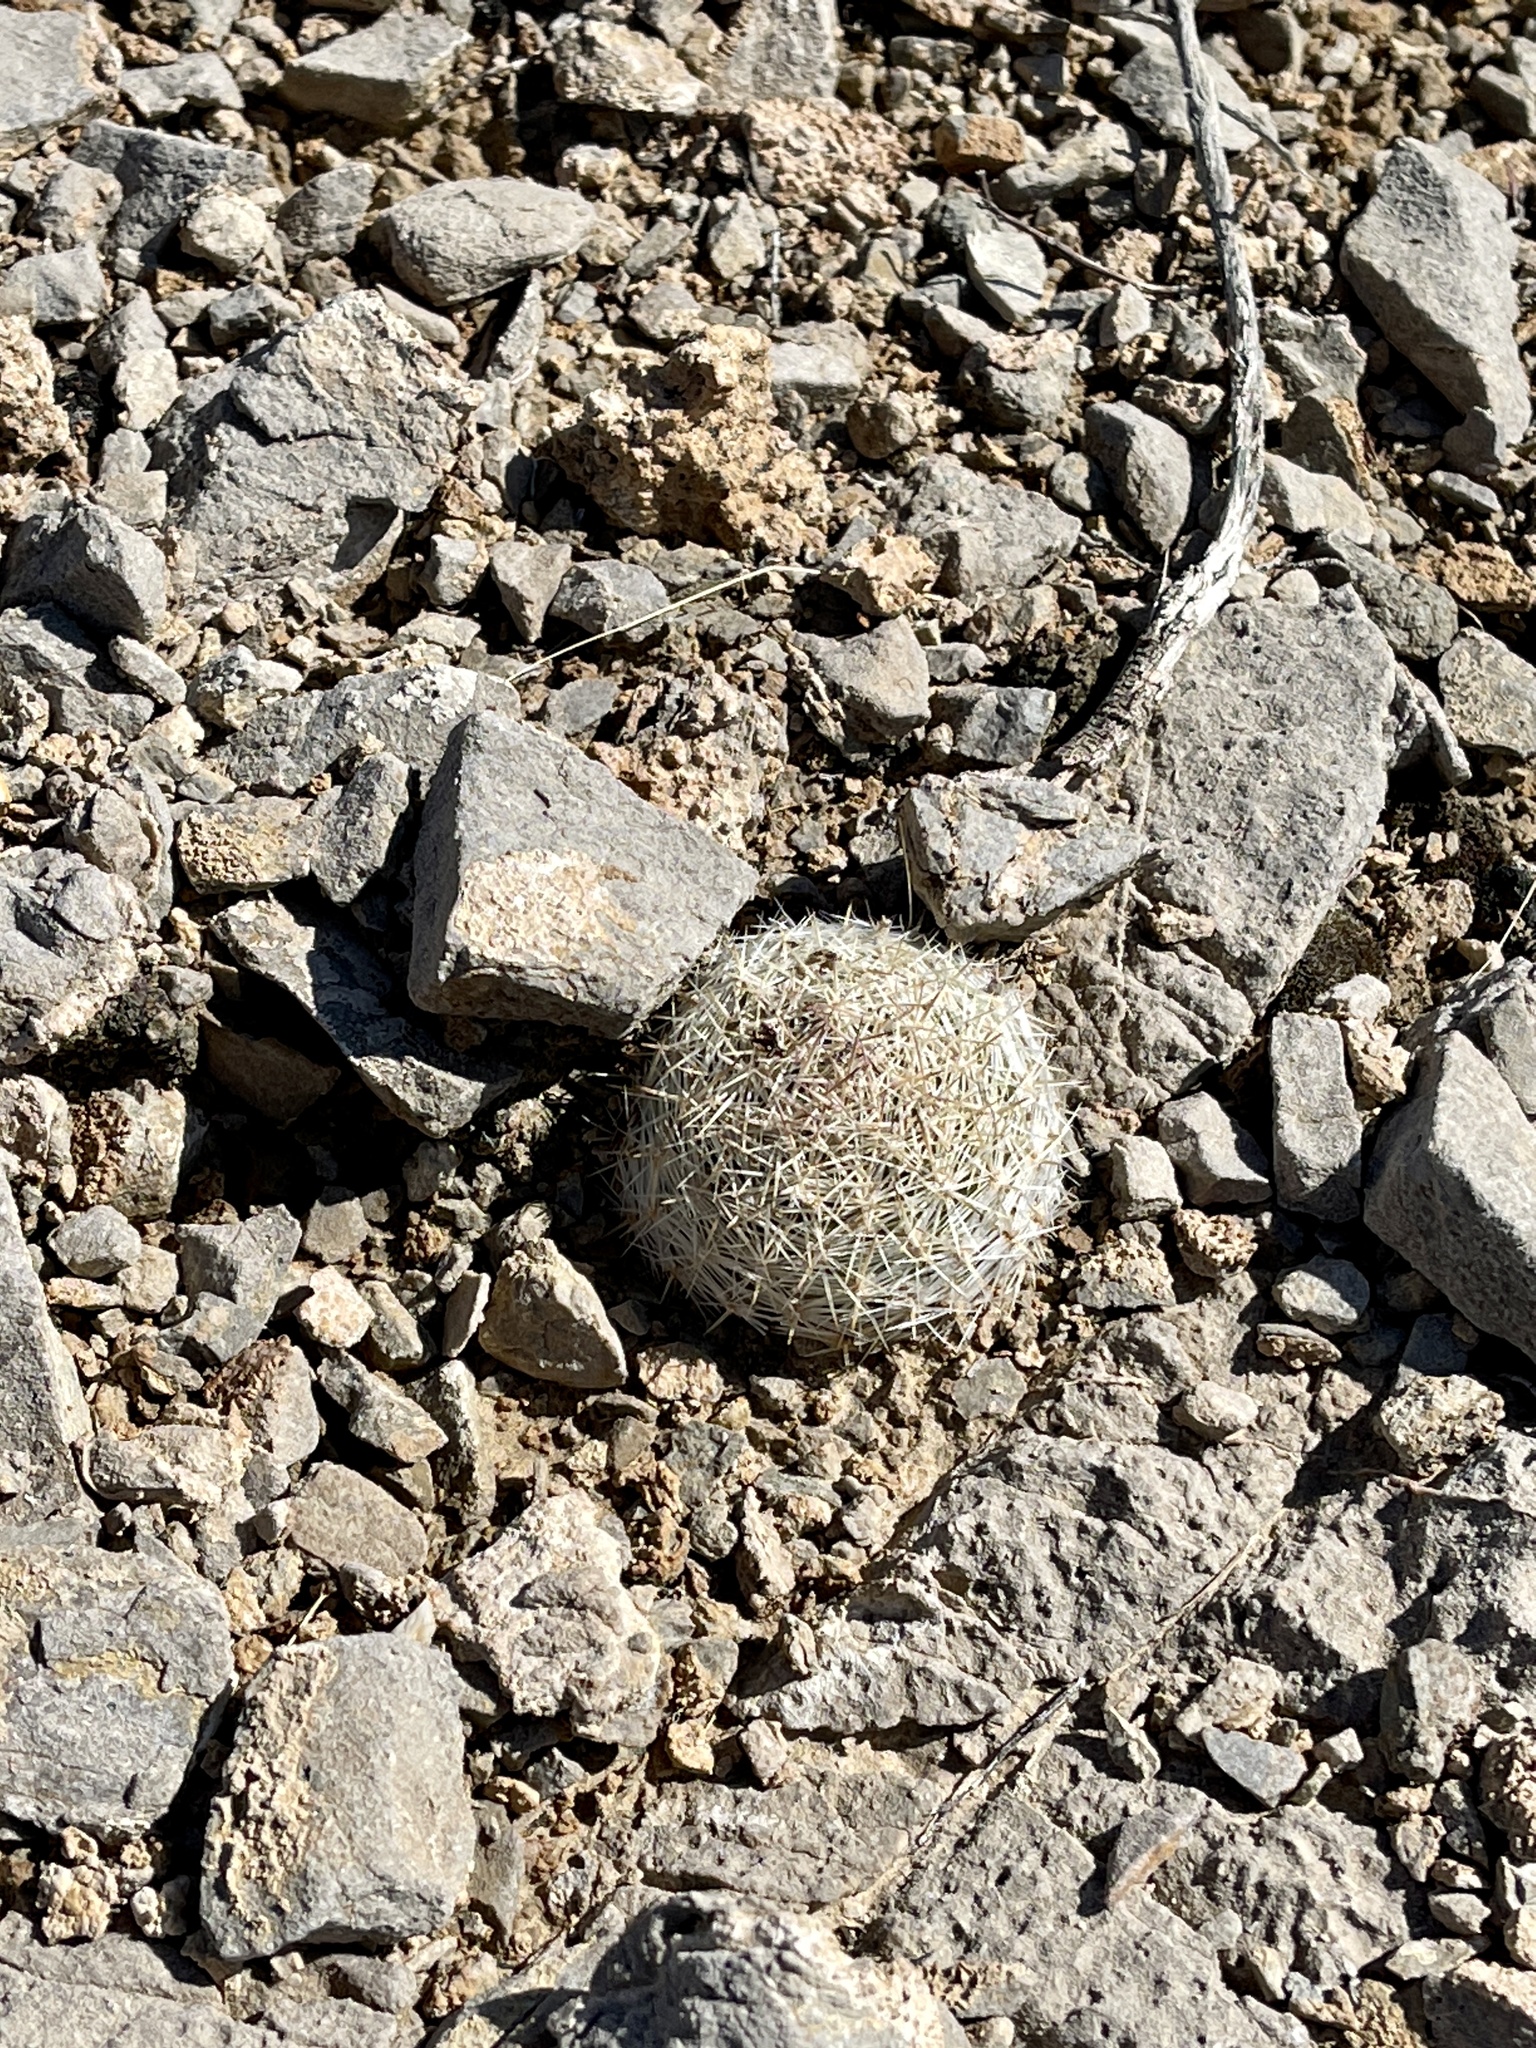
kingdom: Plantae
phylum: Tracheophyta
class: Magnoliopsida
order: Caryophyllales
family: Cactaceae
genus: Pelecyphora
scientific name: Pelecyphora dasyacantha
